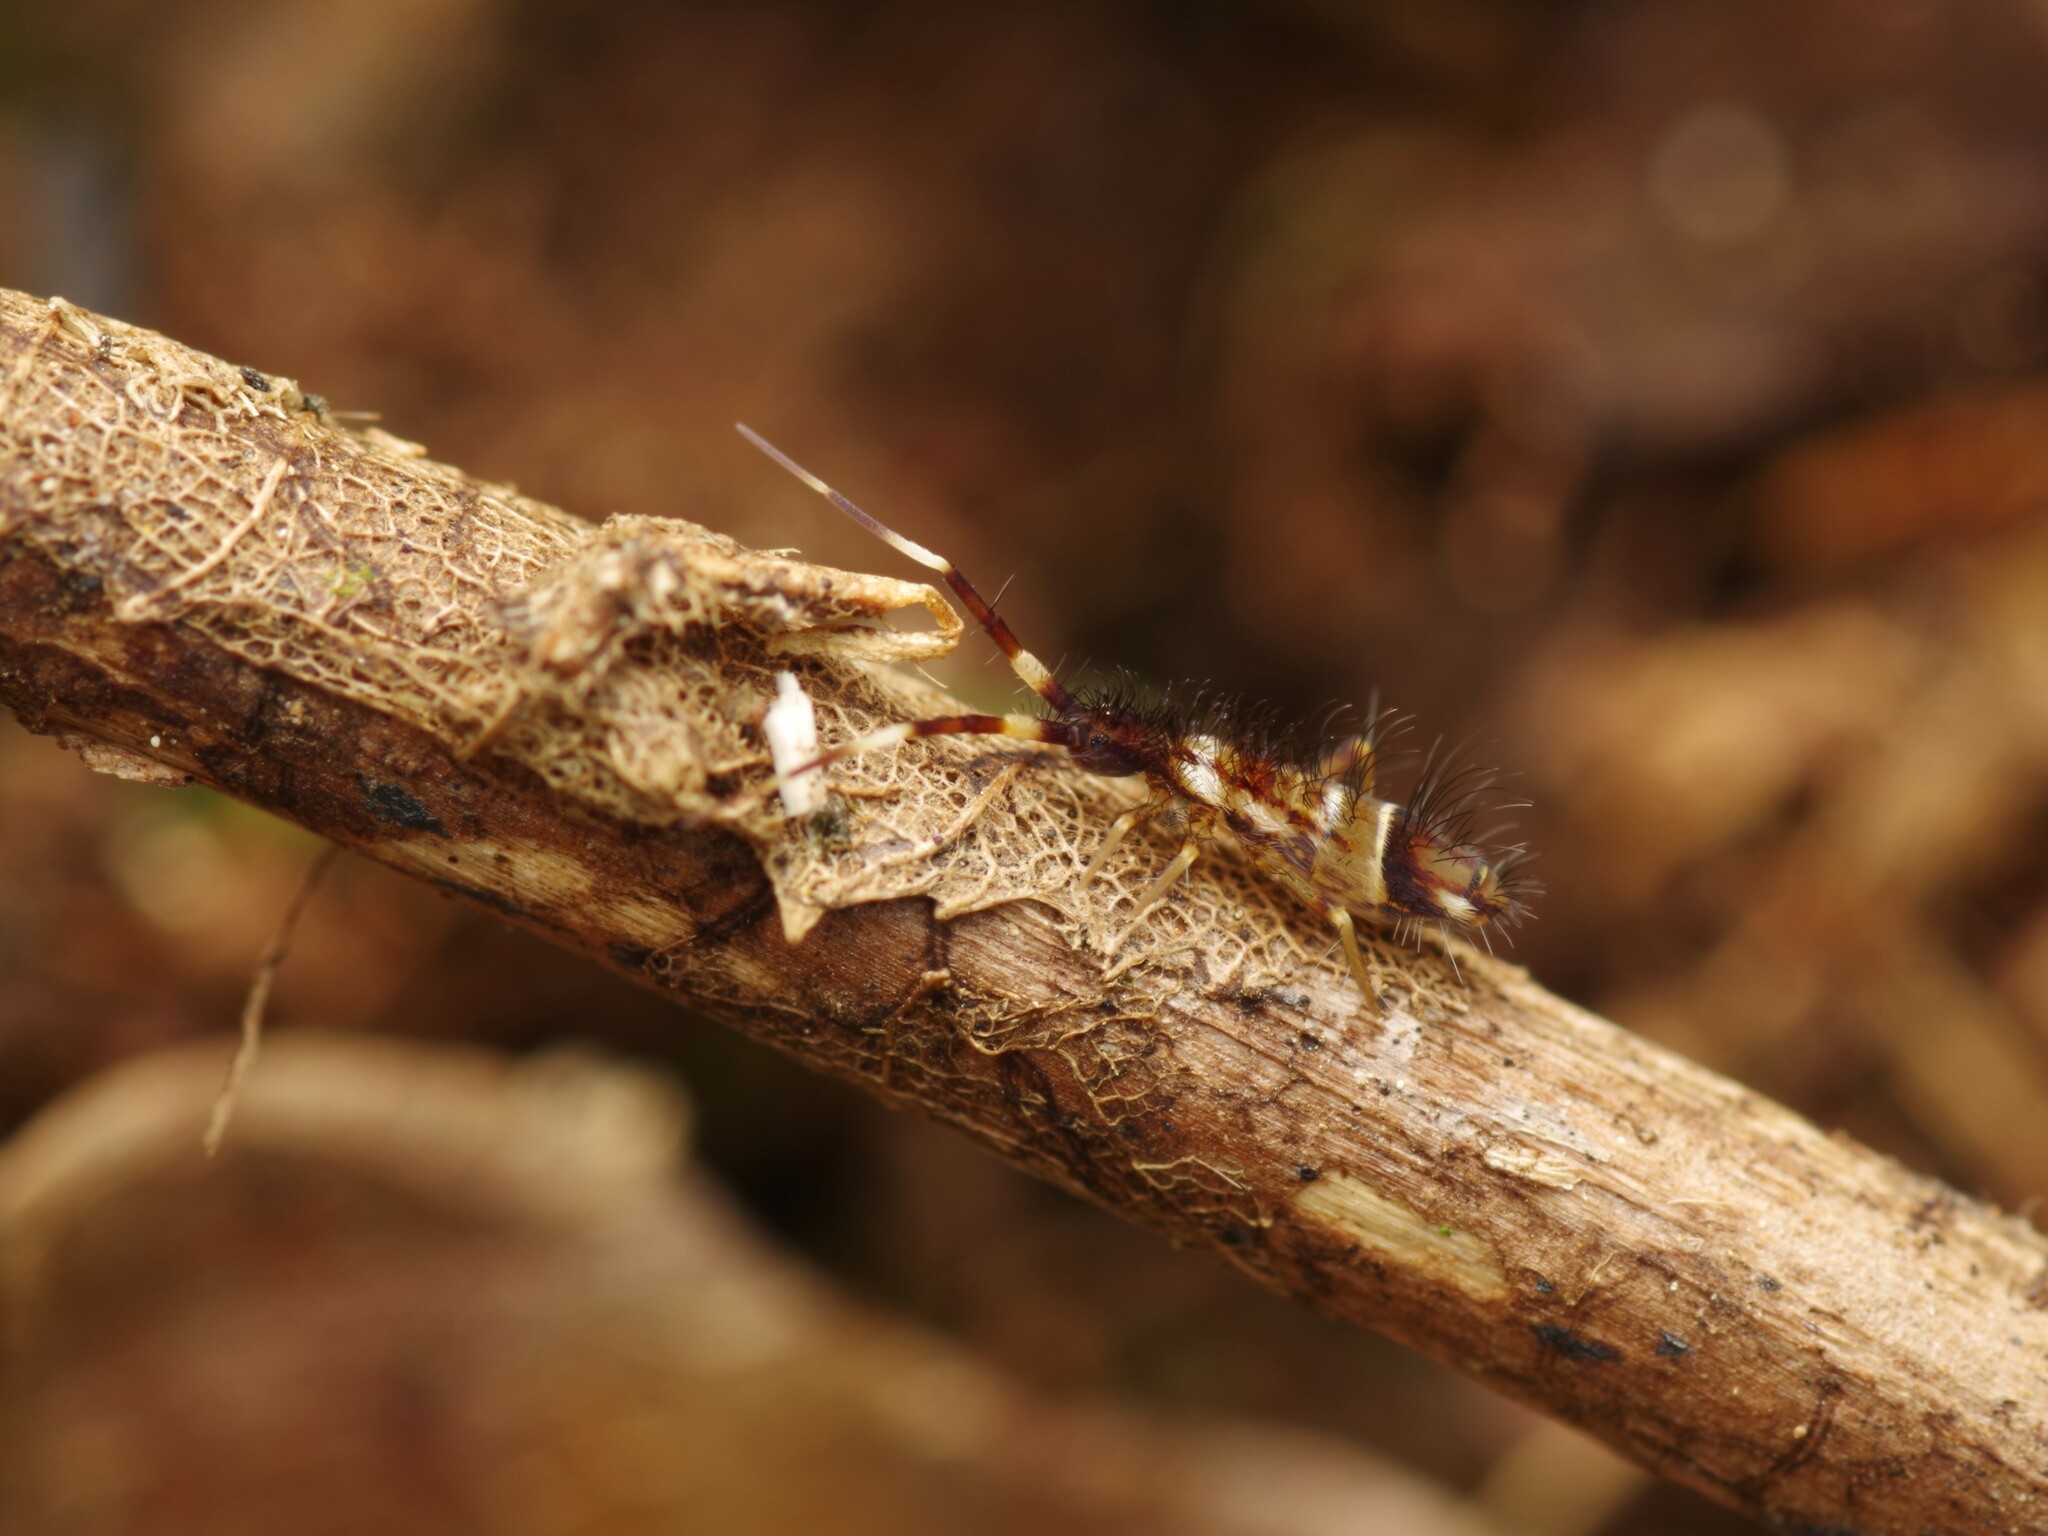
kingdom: Animalia
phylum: Arthropoda
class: Collembola
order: Entomobryomorpha
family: Entomobryidae
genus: Entomobrya
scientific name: Entomobrya nivalis
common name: Cosmopolitan springtail
